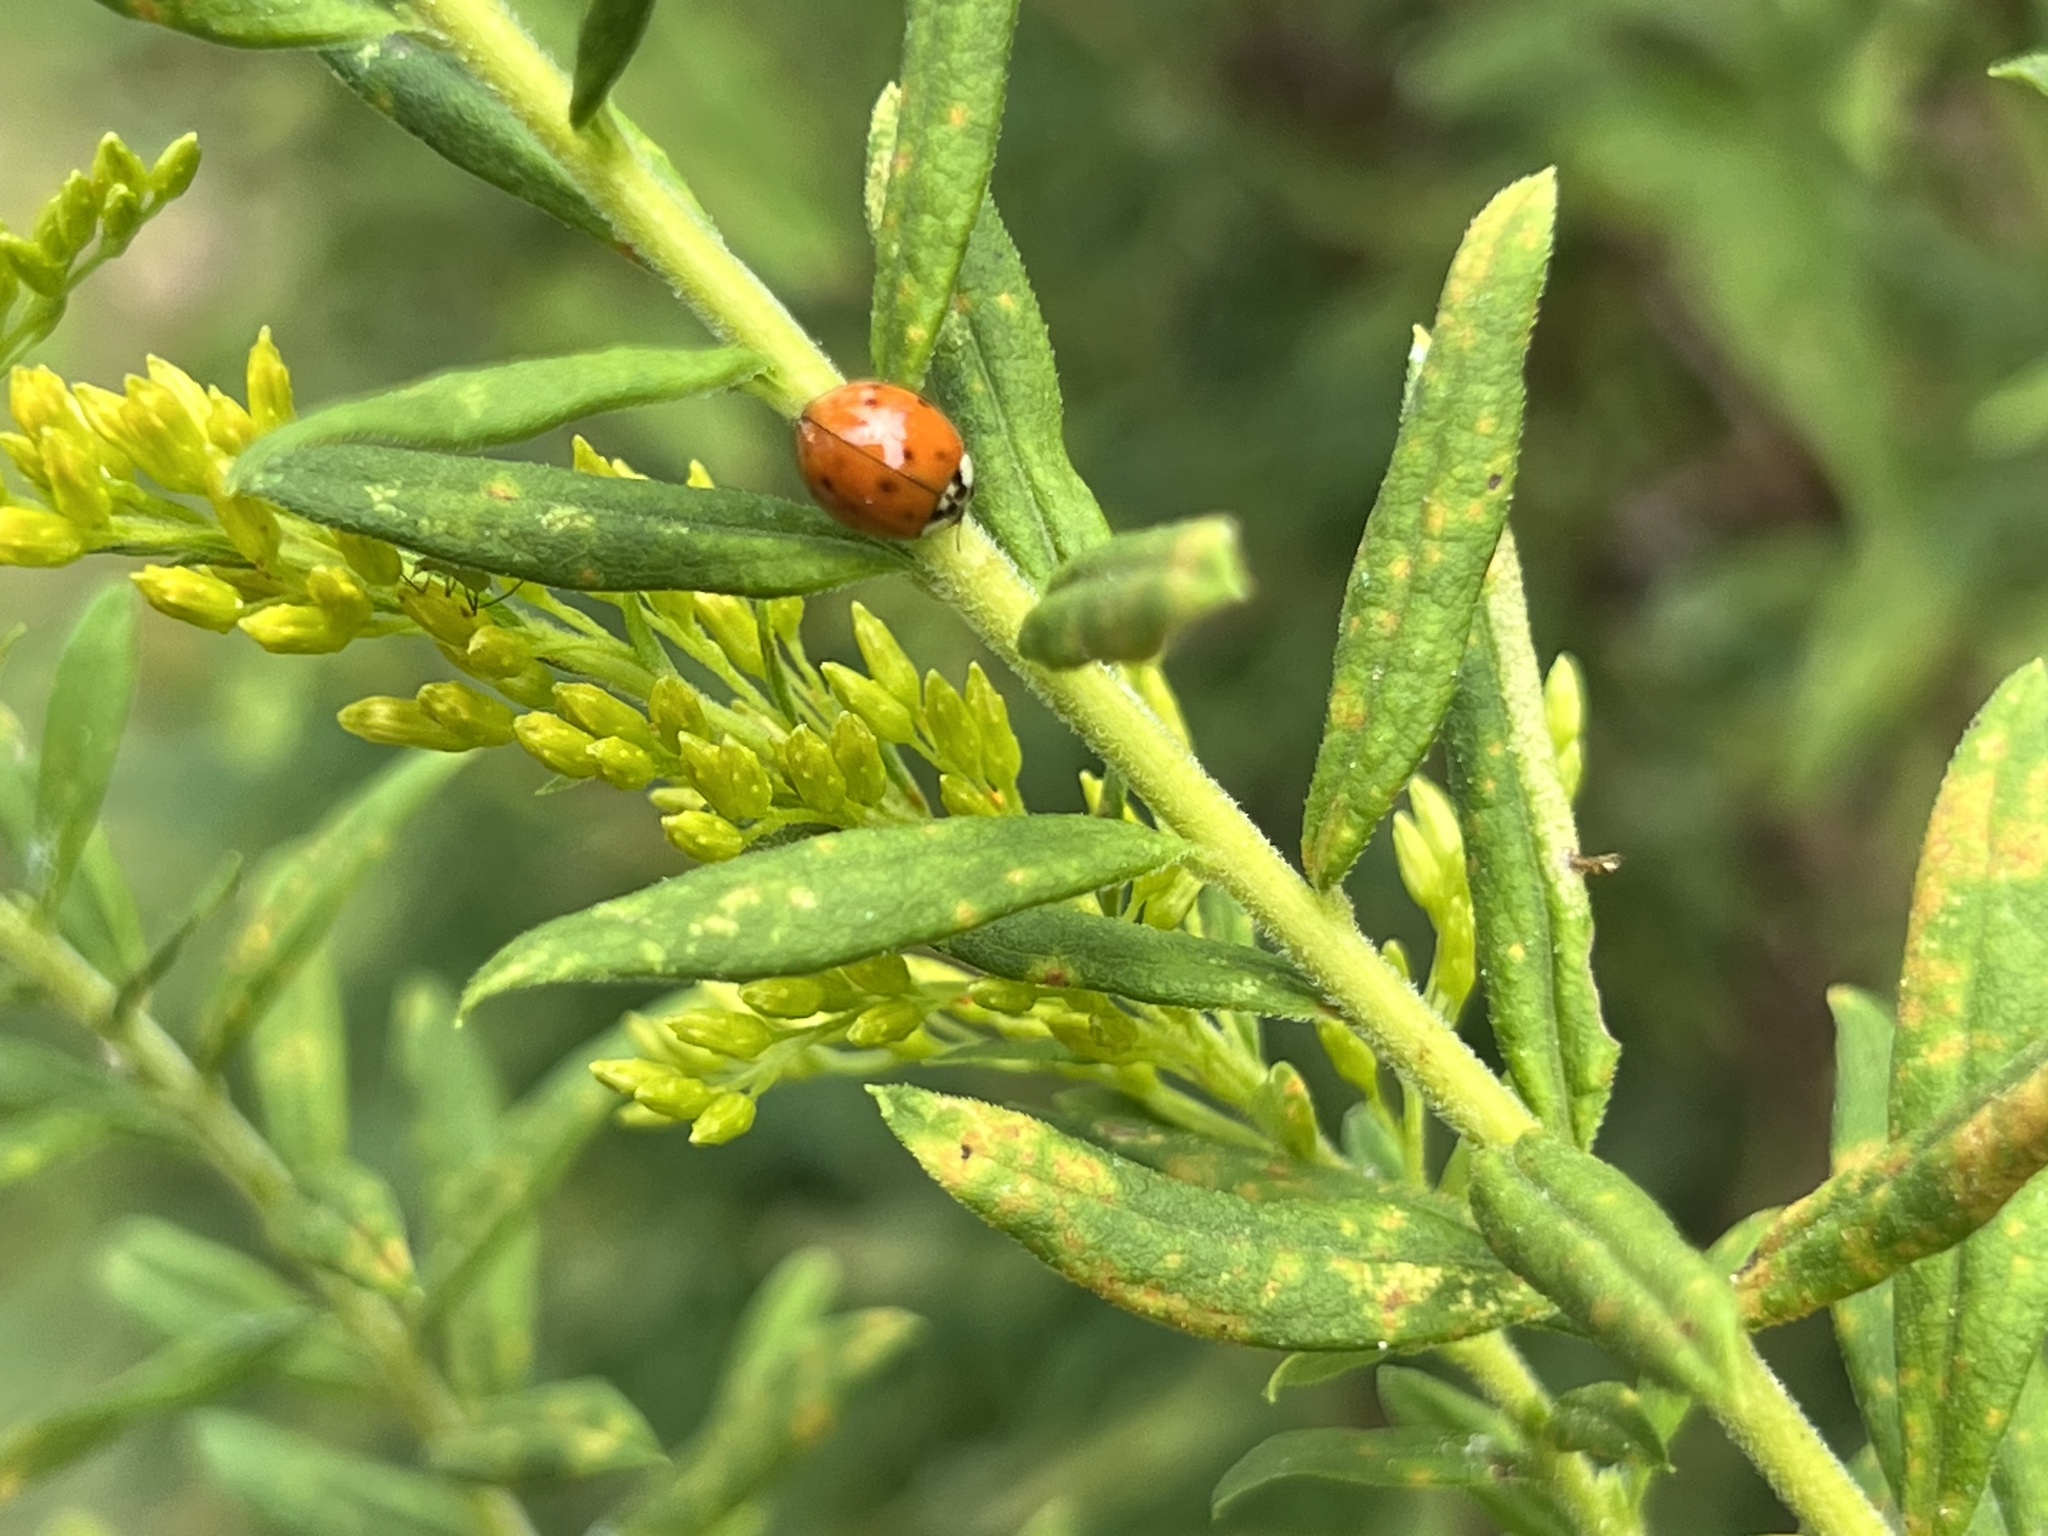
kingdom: Animalia
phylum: Arthropoda
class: Insecta
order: Coleoptera
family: Coccinellidae
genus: Harmonia
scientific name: Harmonia axyridis
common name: Harlequin ladybird
